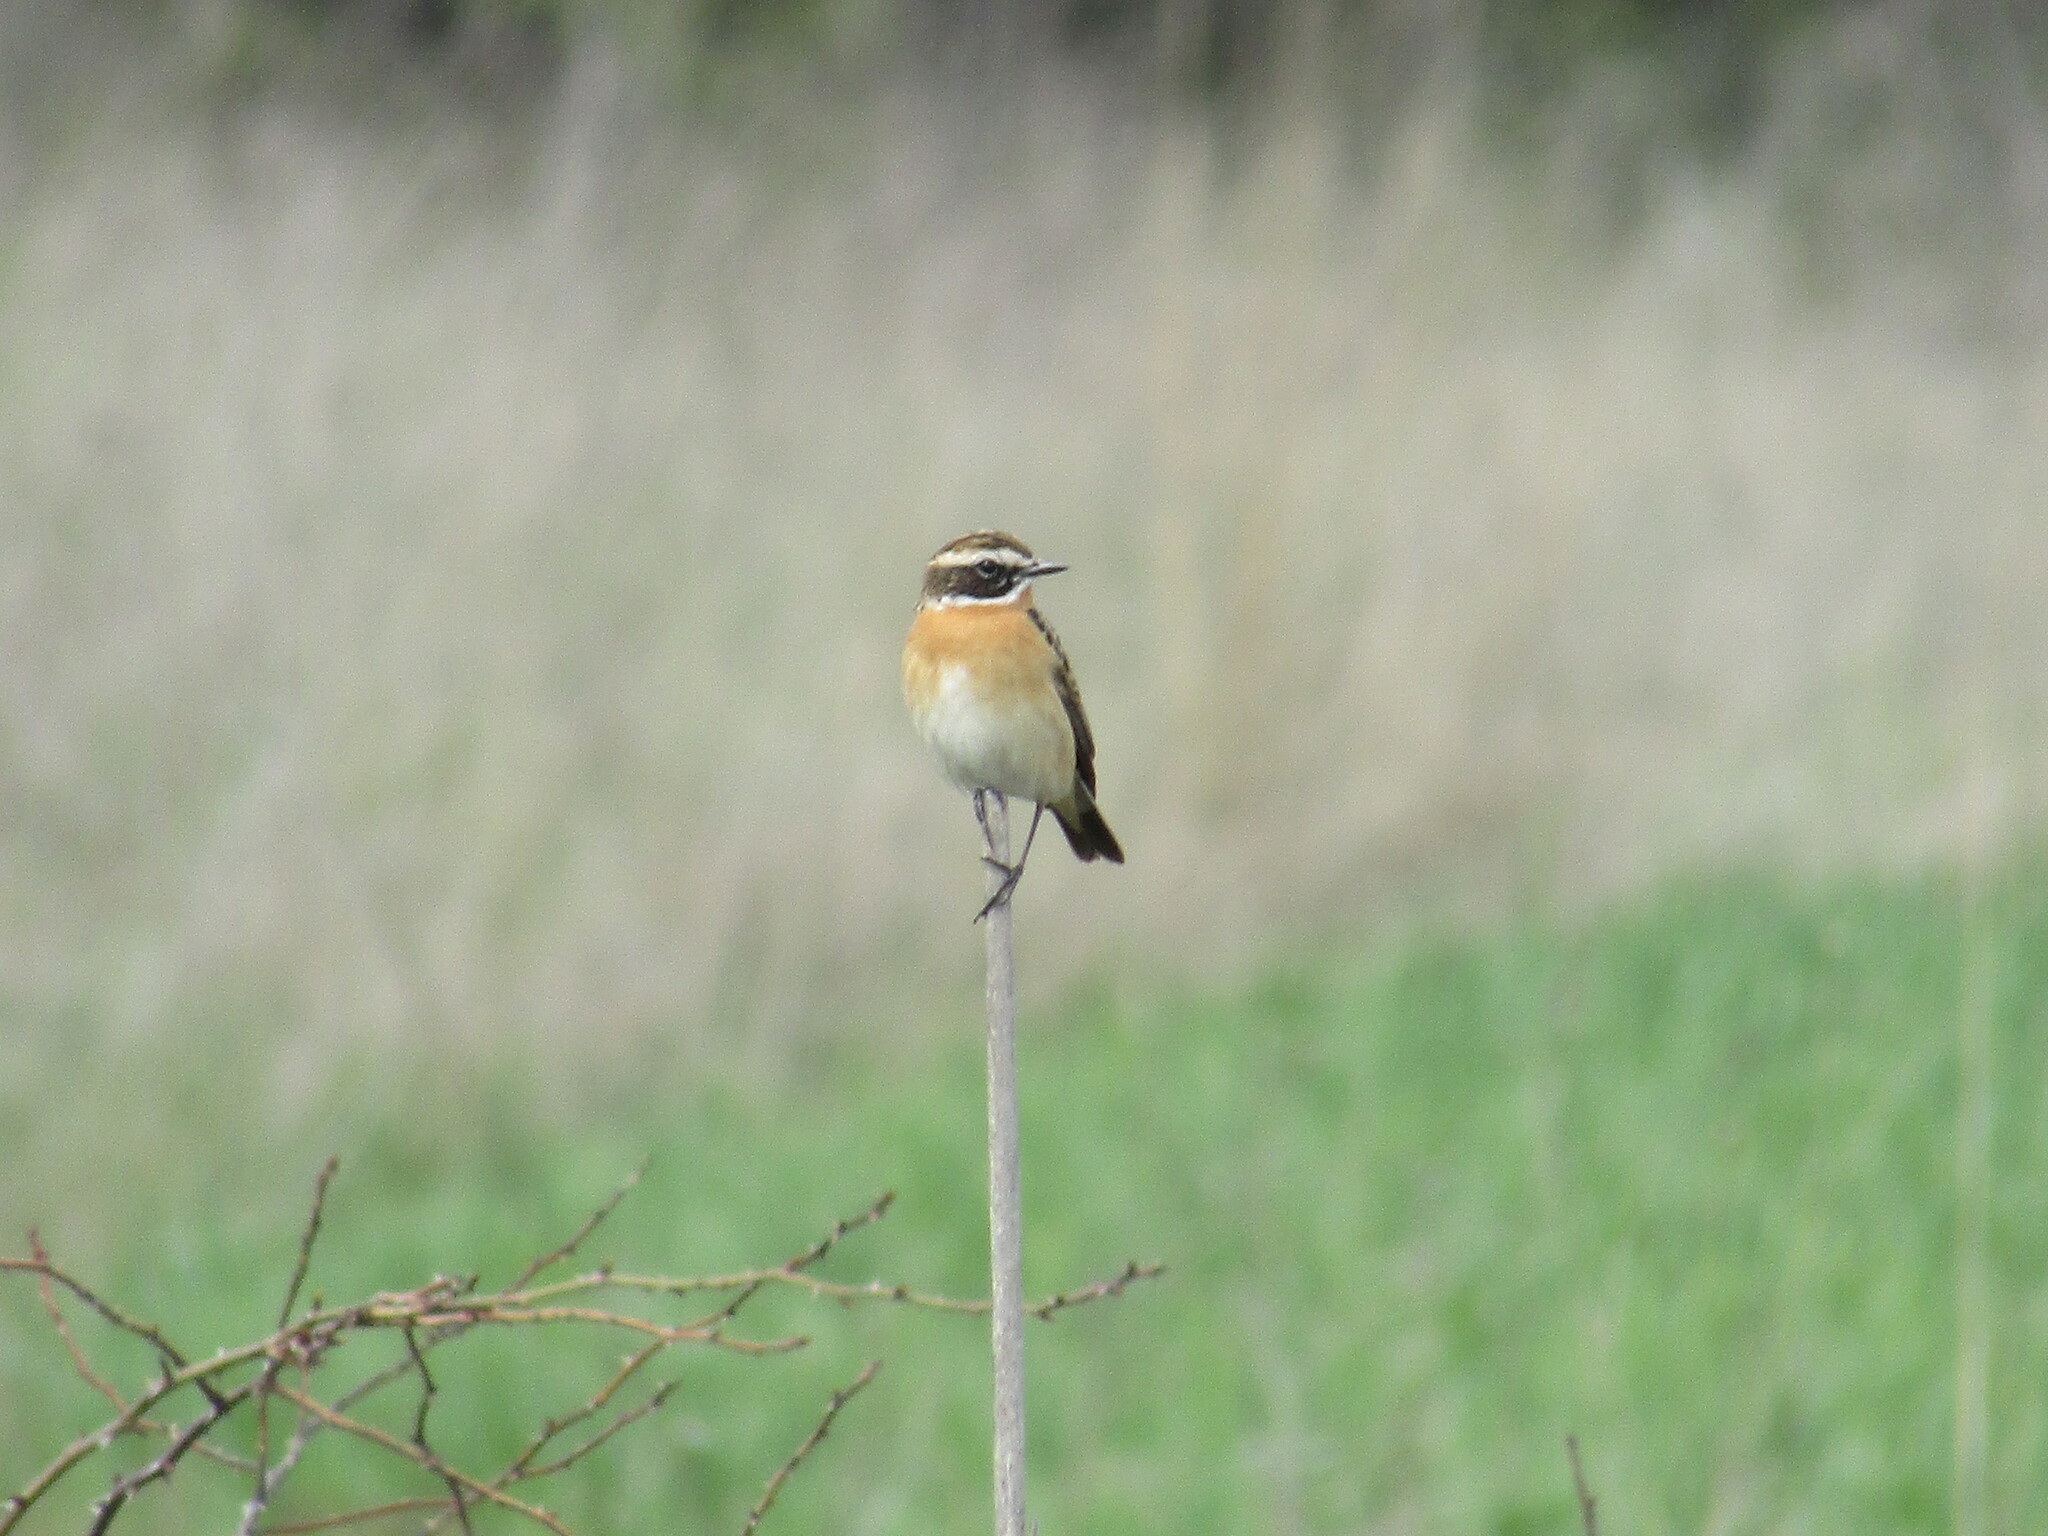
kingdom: Animalia
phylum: Chordata
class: Aves
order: Passeriformes
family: Muscicapidae
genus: Saxicola
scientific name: Saxicola rubetra
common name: Whinchat
